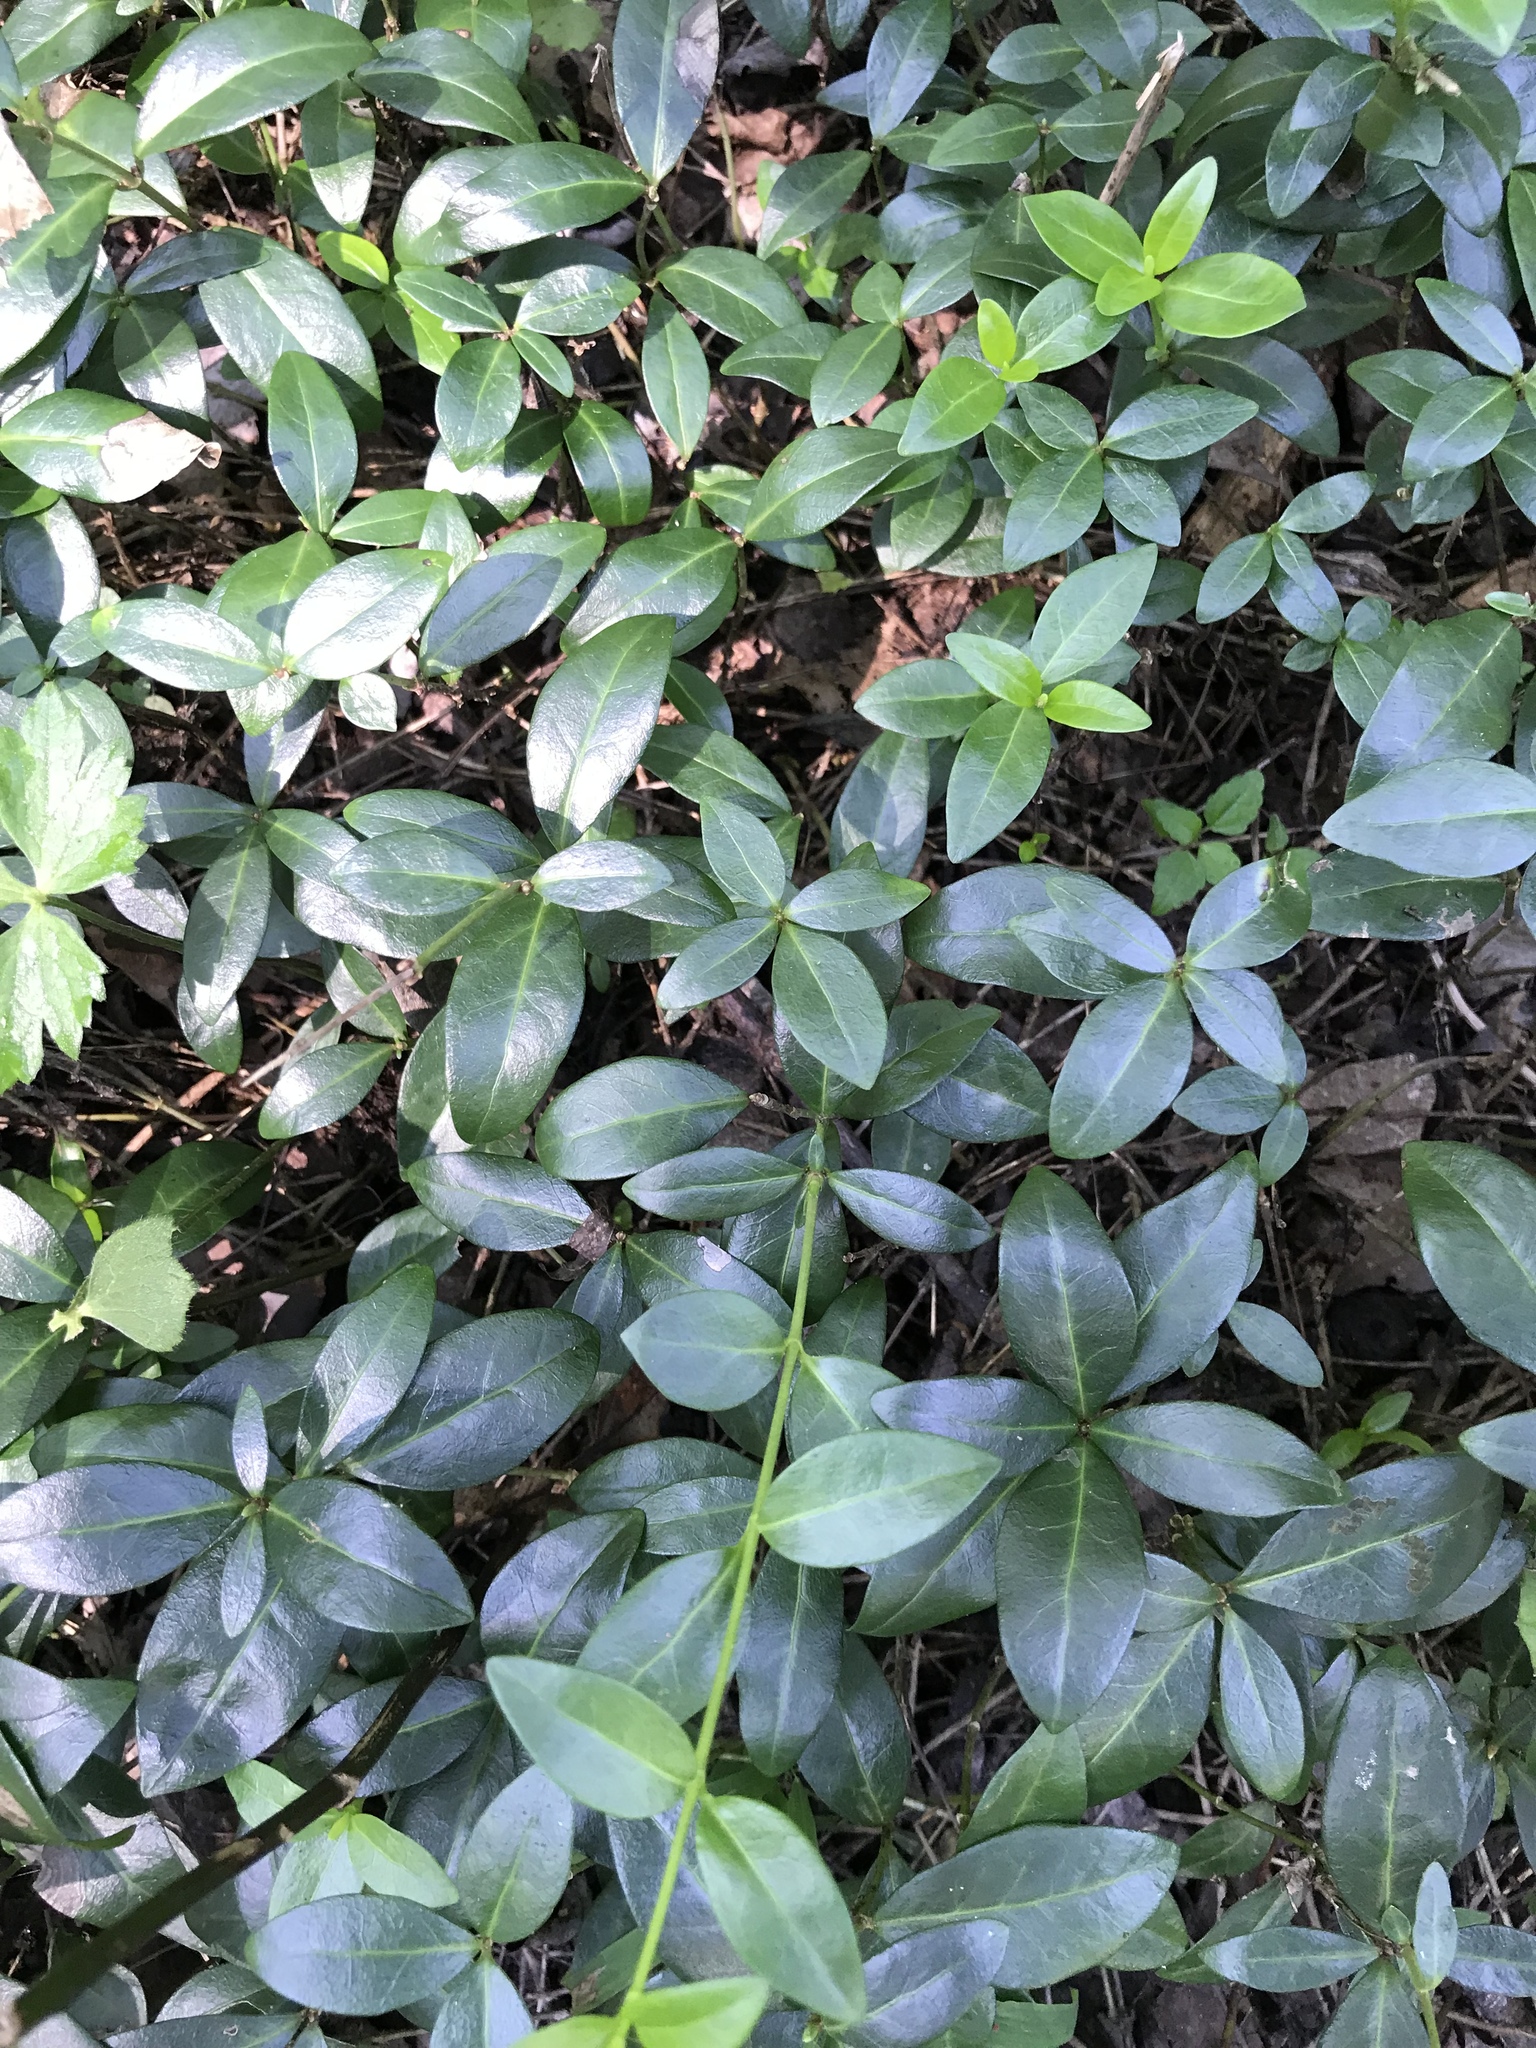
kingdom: Plantae
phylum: Tracheophyta
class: Magnoliopsida
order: Gentianales
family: Apocynaceae
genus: Vinca
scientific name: Vinca minor
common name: Lesser periwinkle
